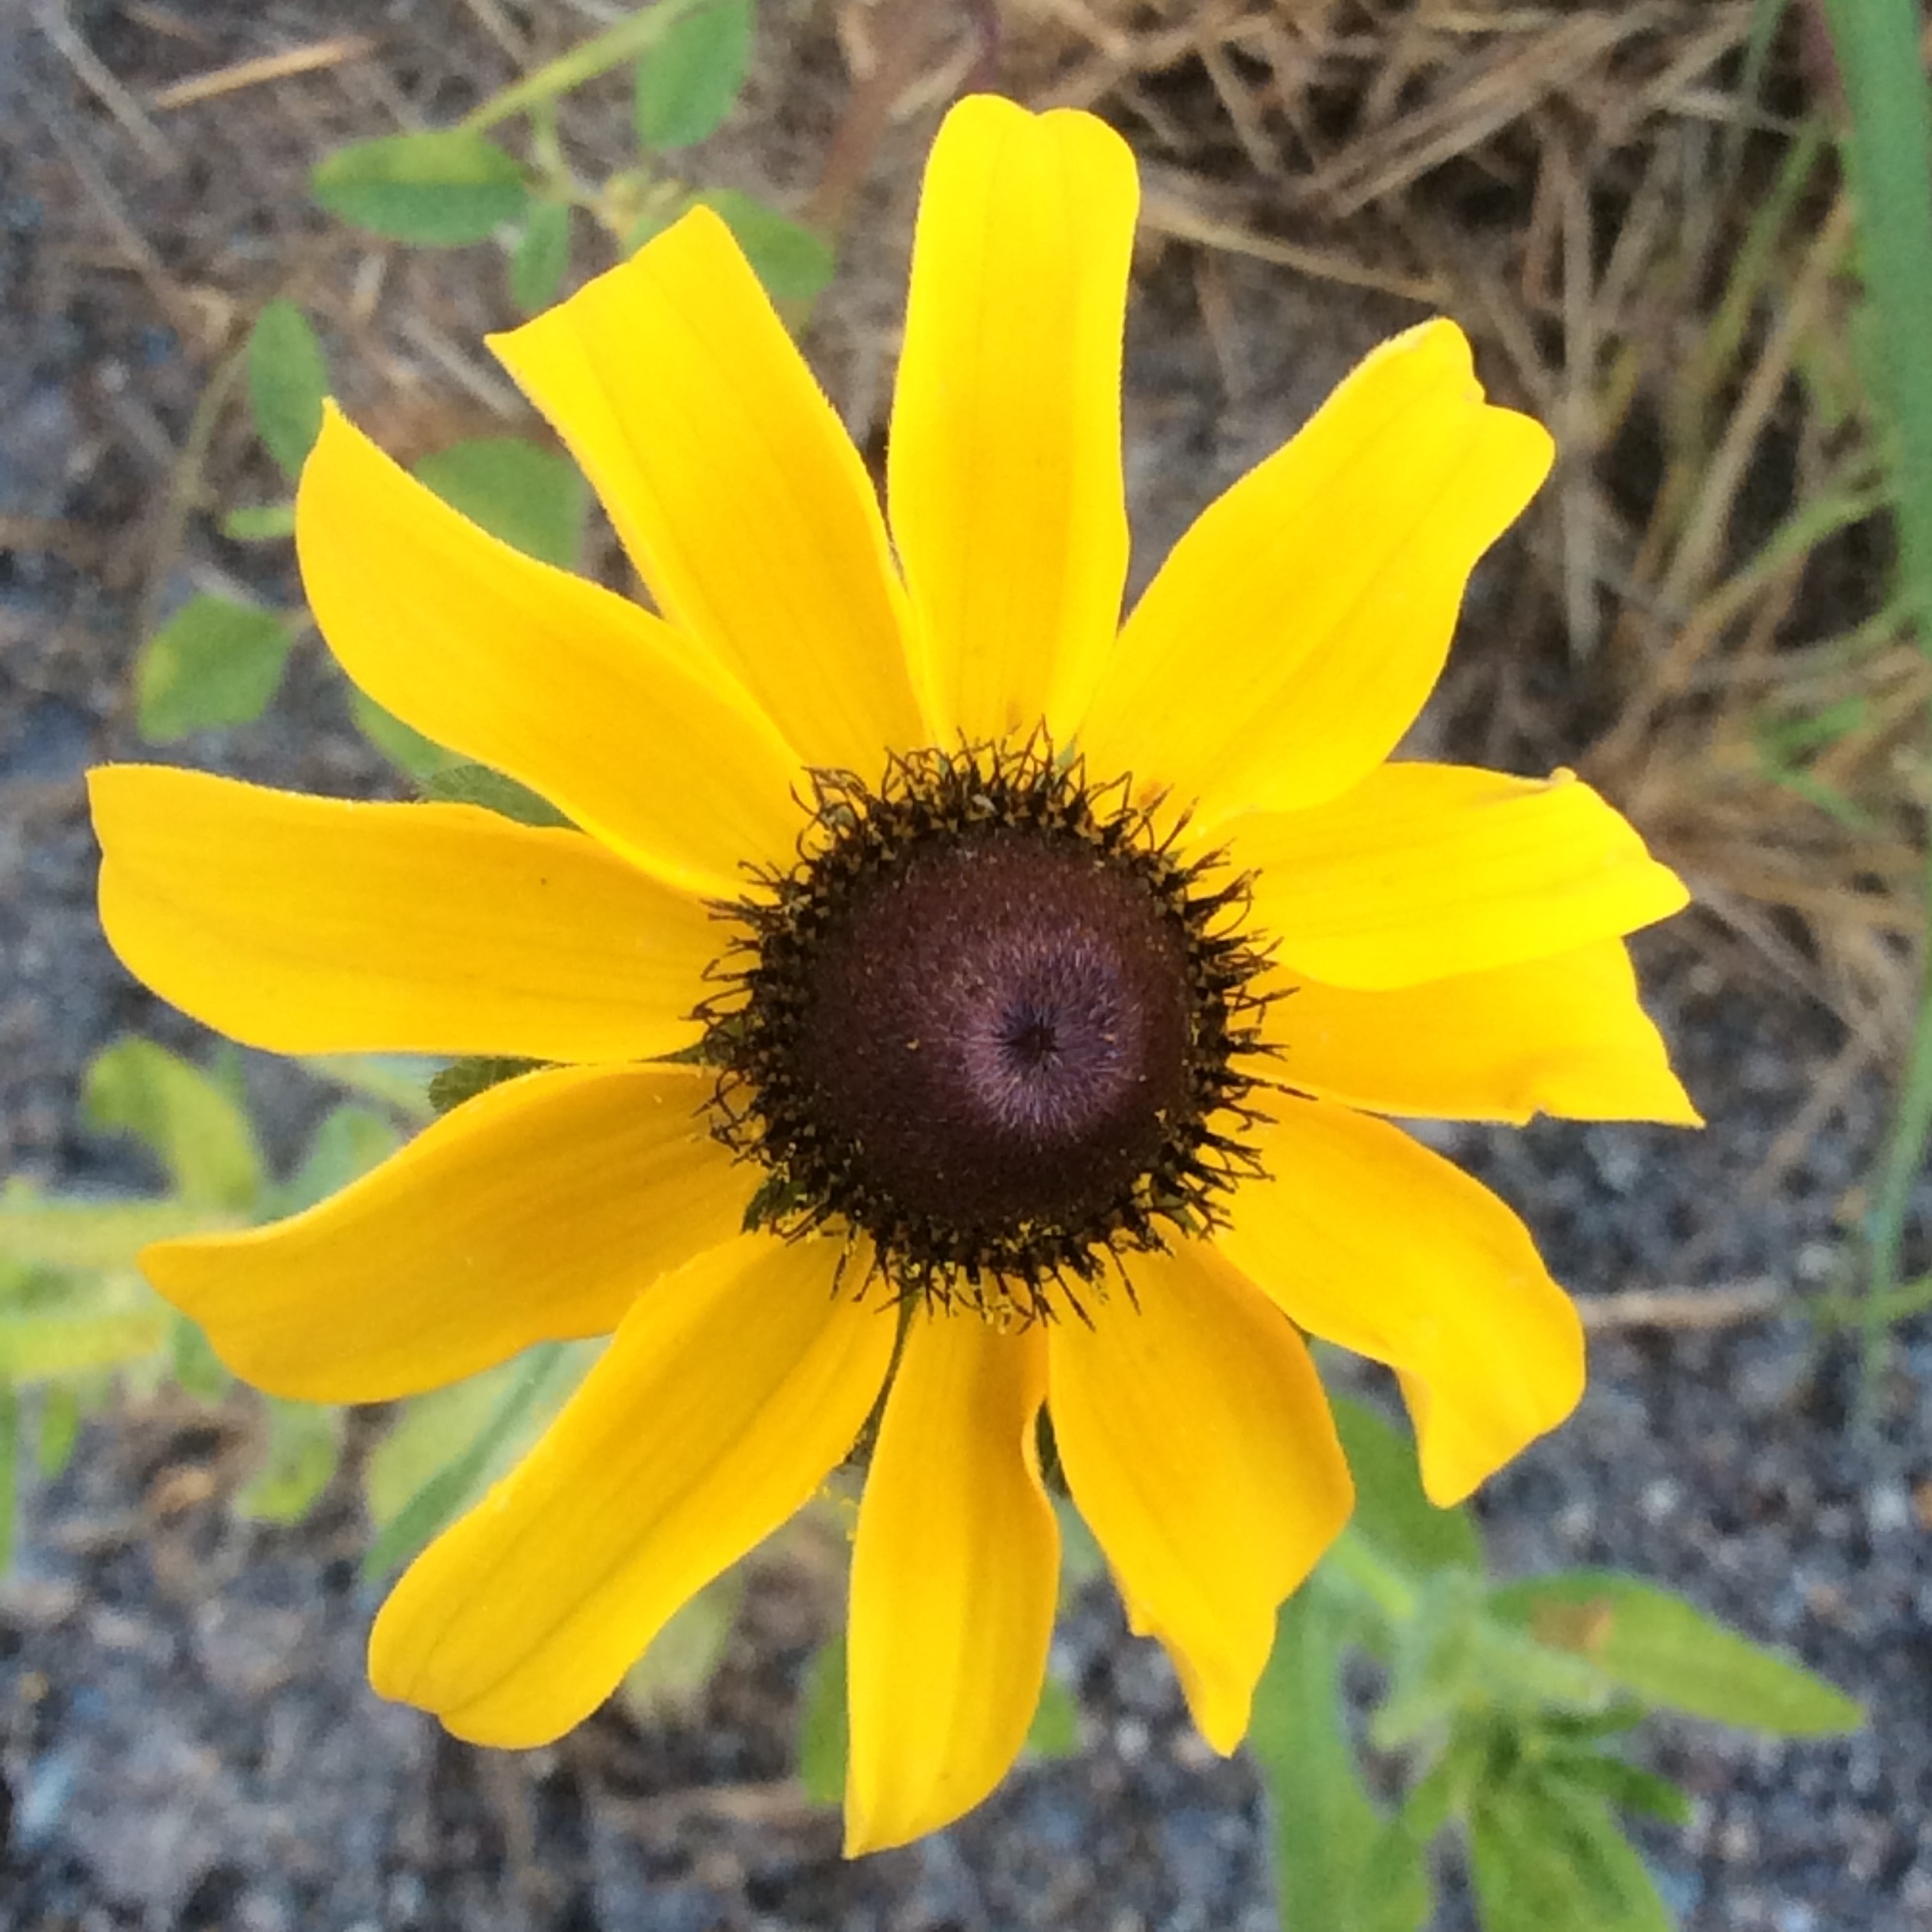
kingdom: Plantae
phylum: Tracheophyta
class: Magnoliopsida
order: Asterales
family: Asteraceae
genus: Rudbeckia
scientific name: Rudbeckia hirta
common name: Black-eyed-susan
